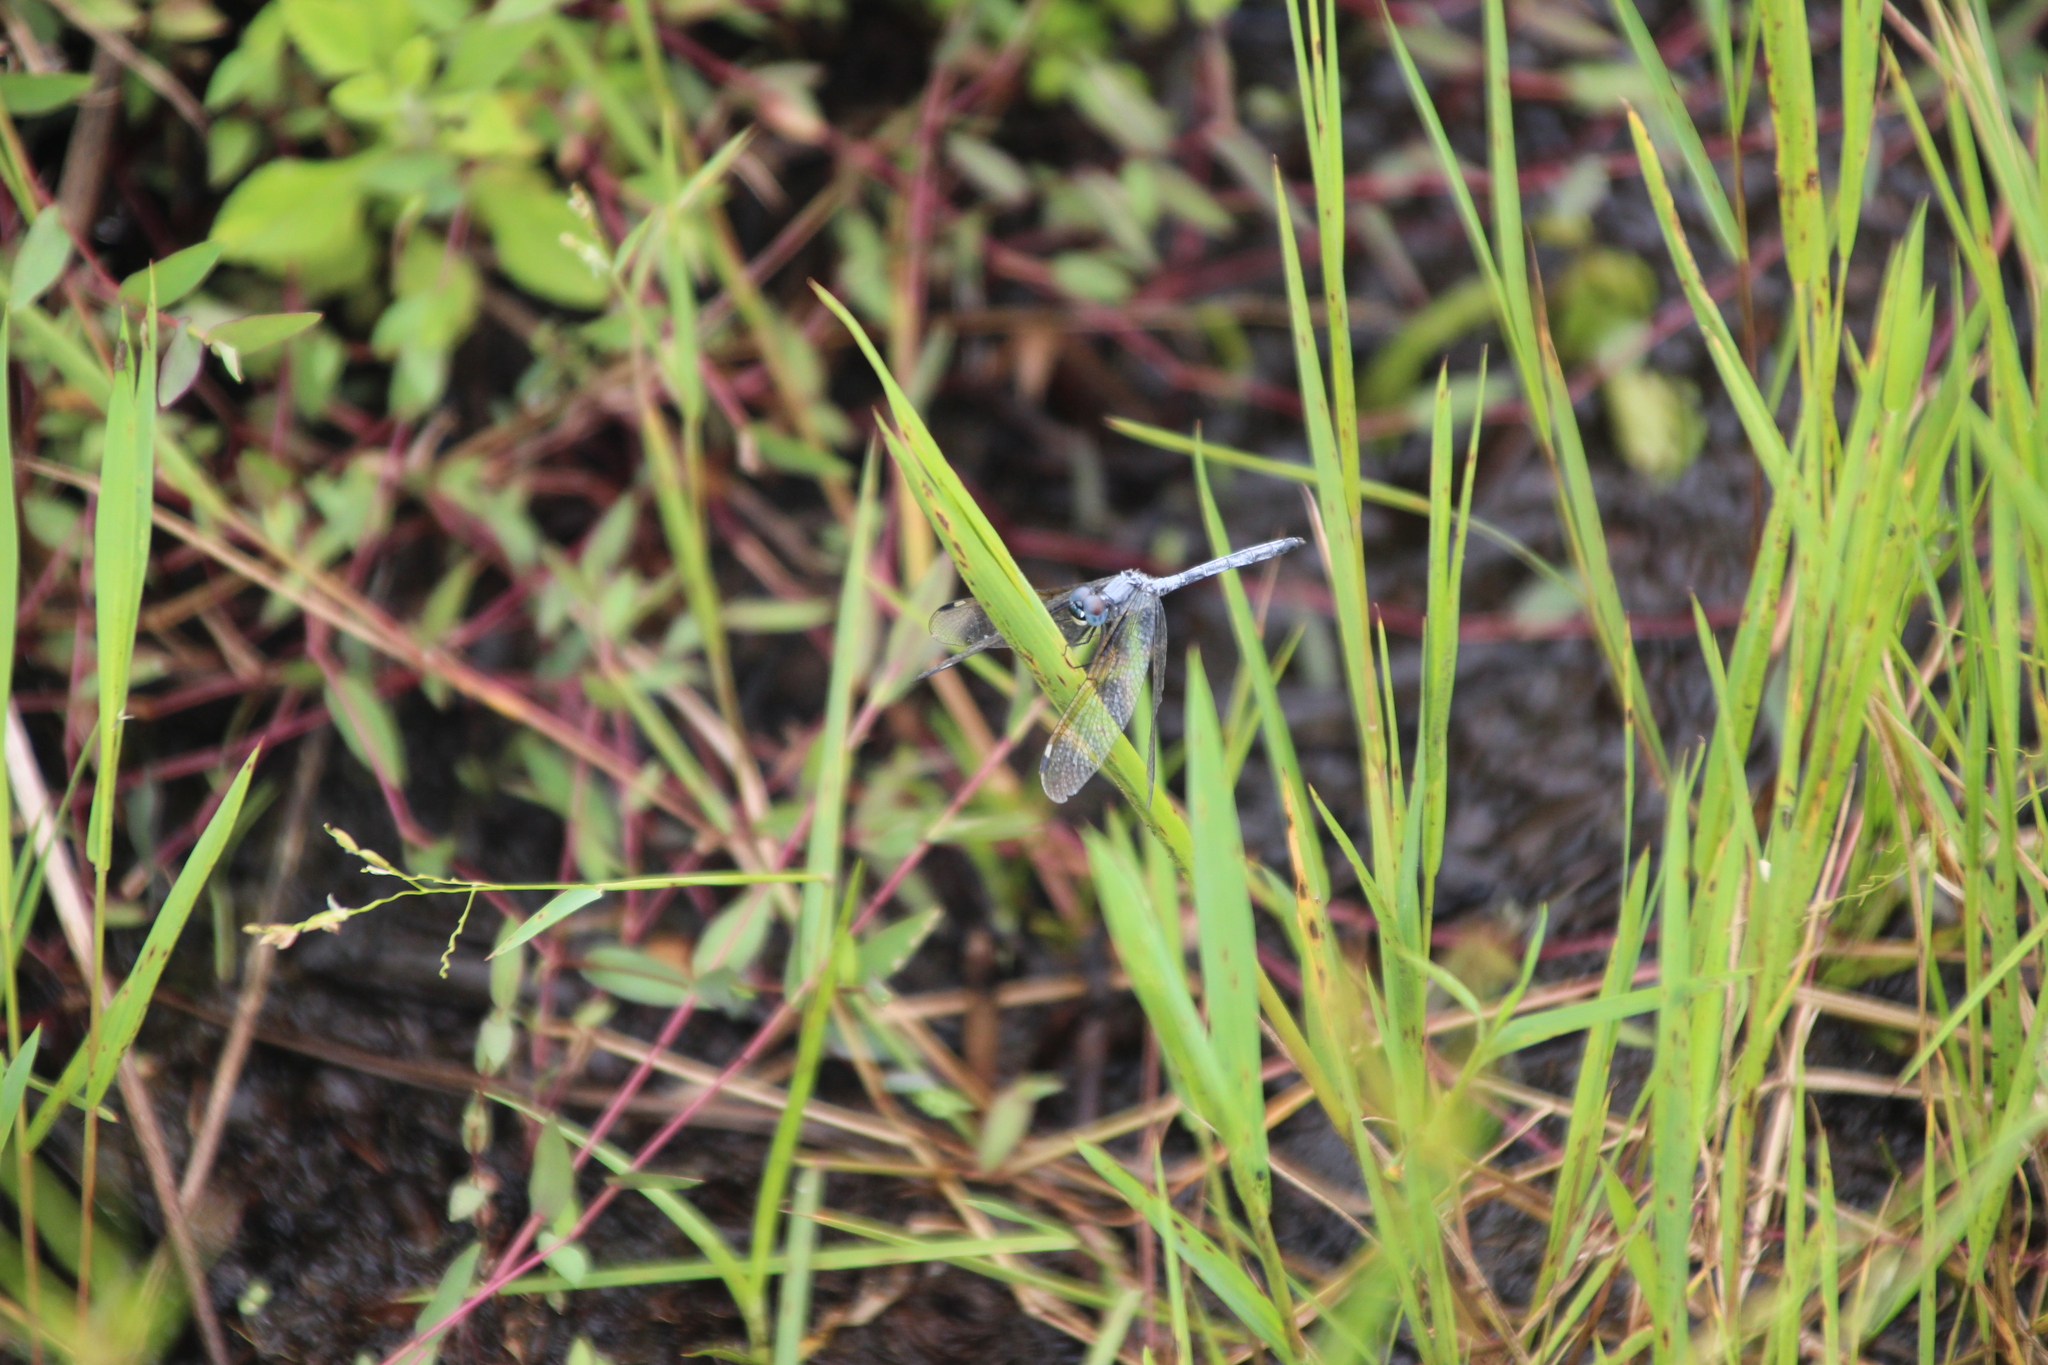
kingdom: Animalia
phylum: Arthropoda
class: Insecta
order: Odonata
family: Libellulidae
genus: Hemistigma
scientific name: Hemistigma albipunctum
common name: African pied-spot
